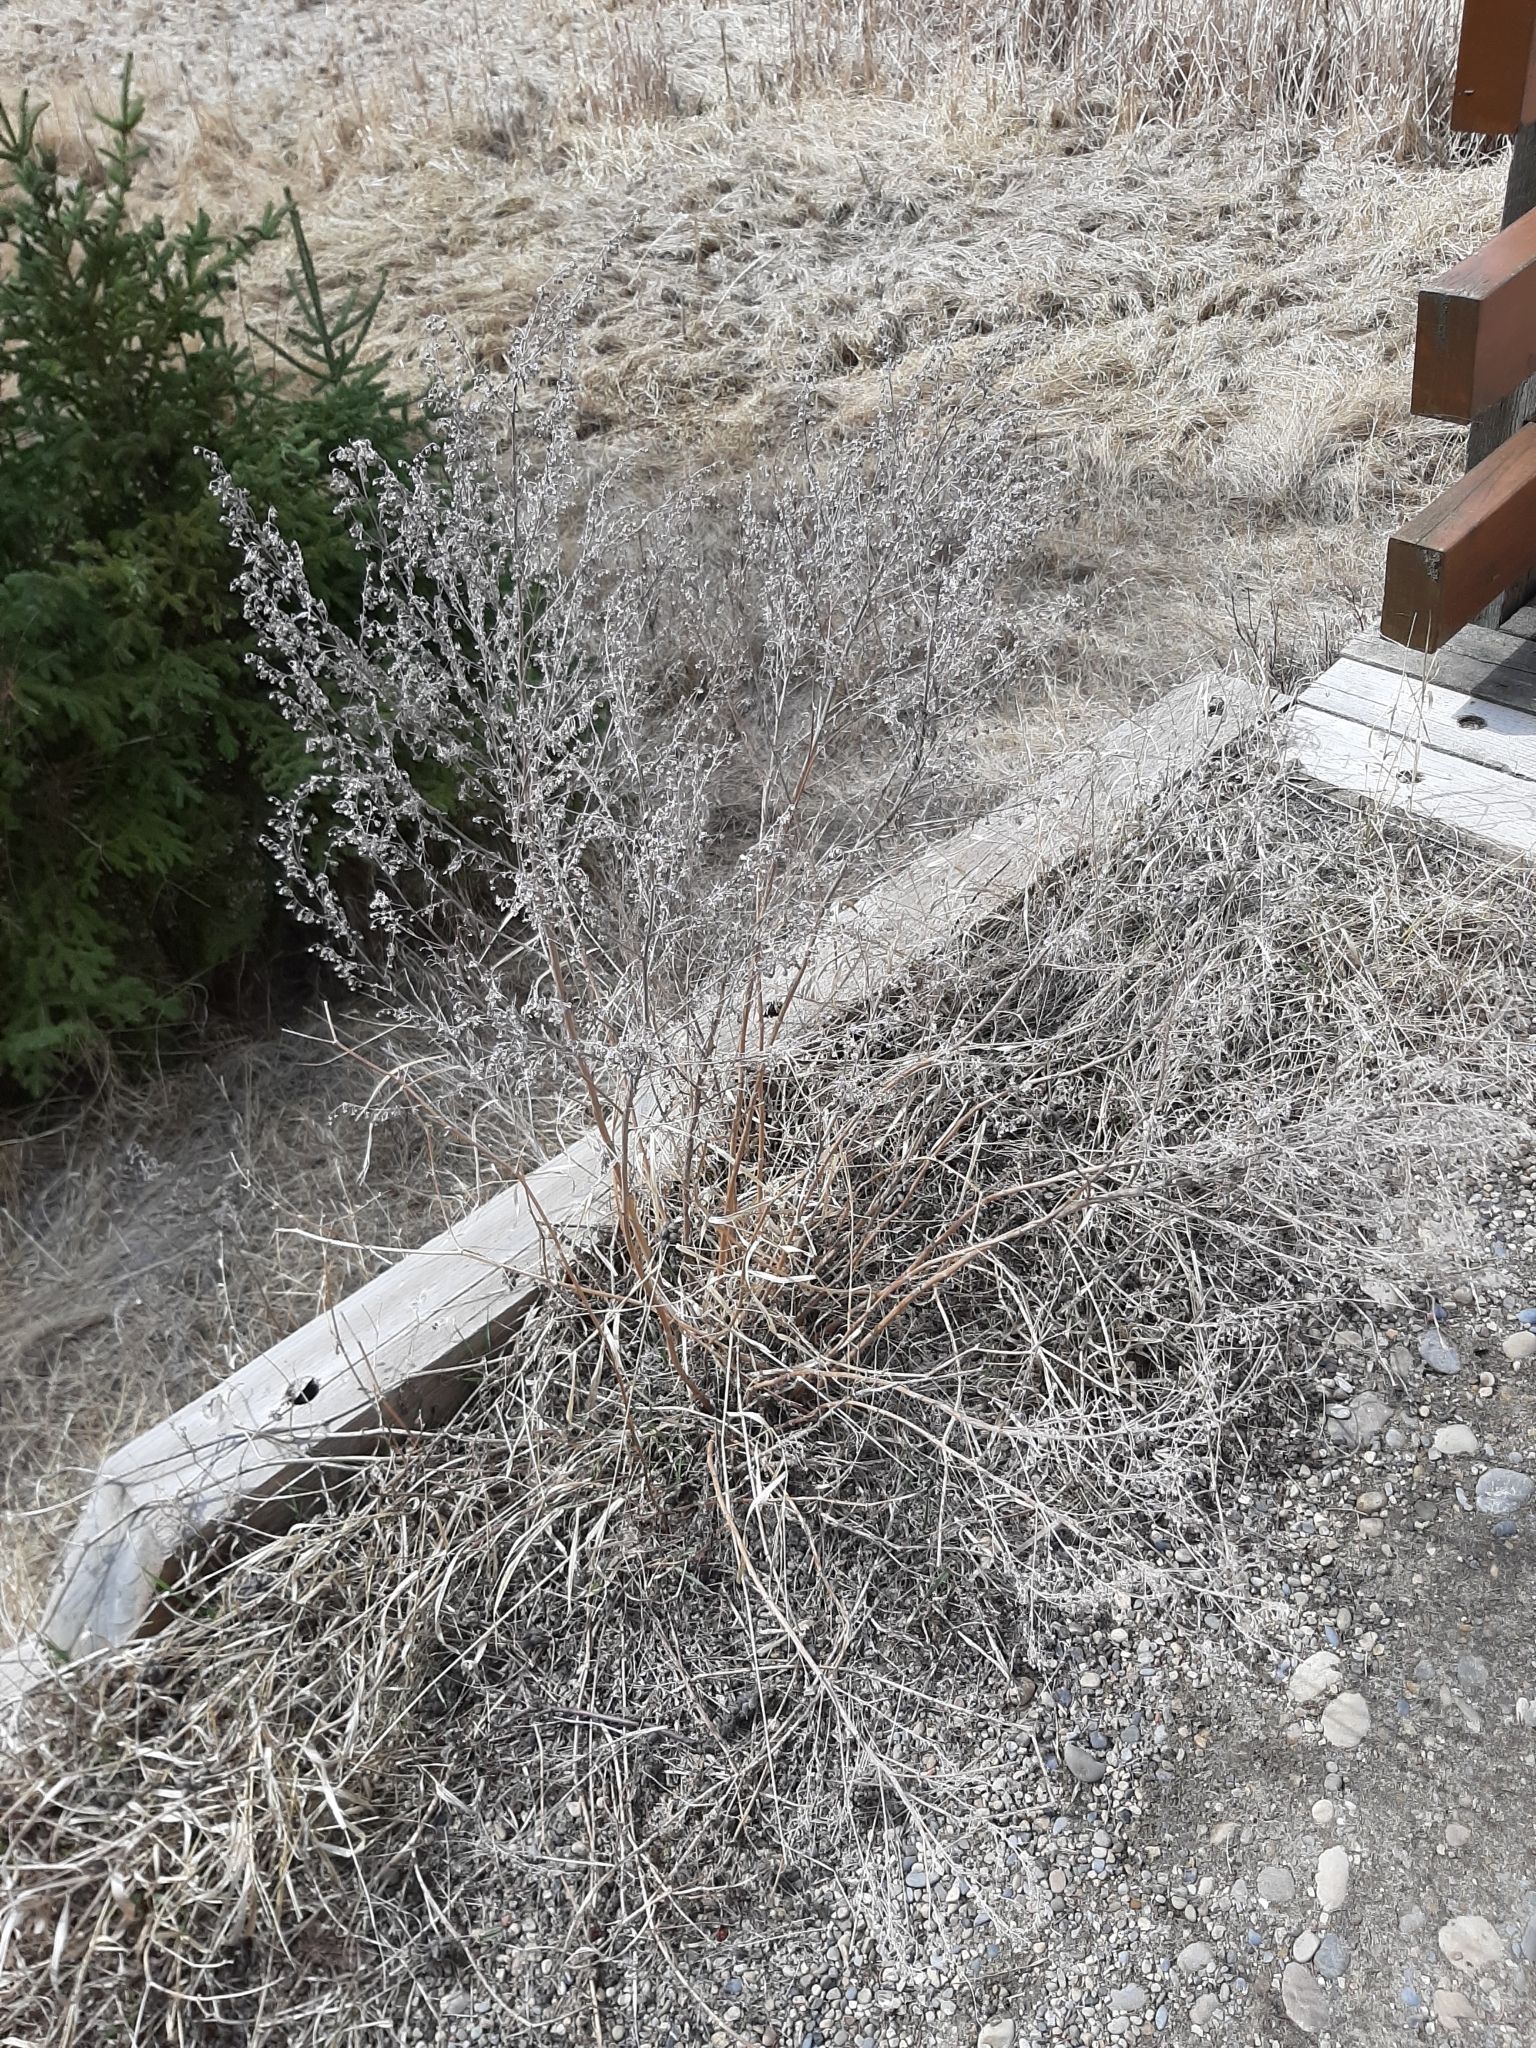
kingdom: Plantae
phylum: Tracheophyta
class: Magnoliopsida
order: Asterales
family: Asteraceae
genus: Artemisia
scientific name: Artemisia absinthium
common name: Wormwood
